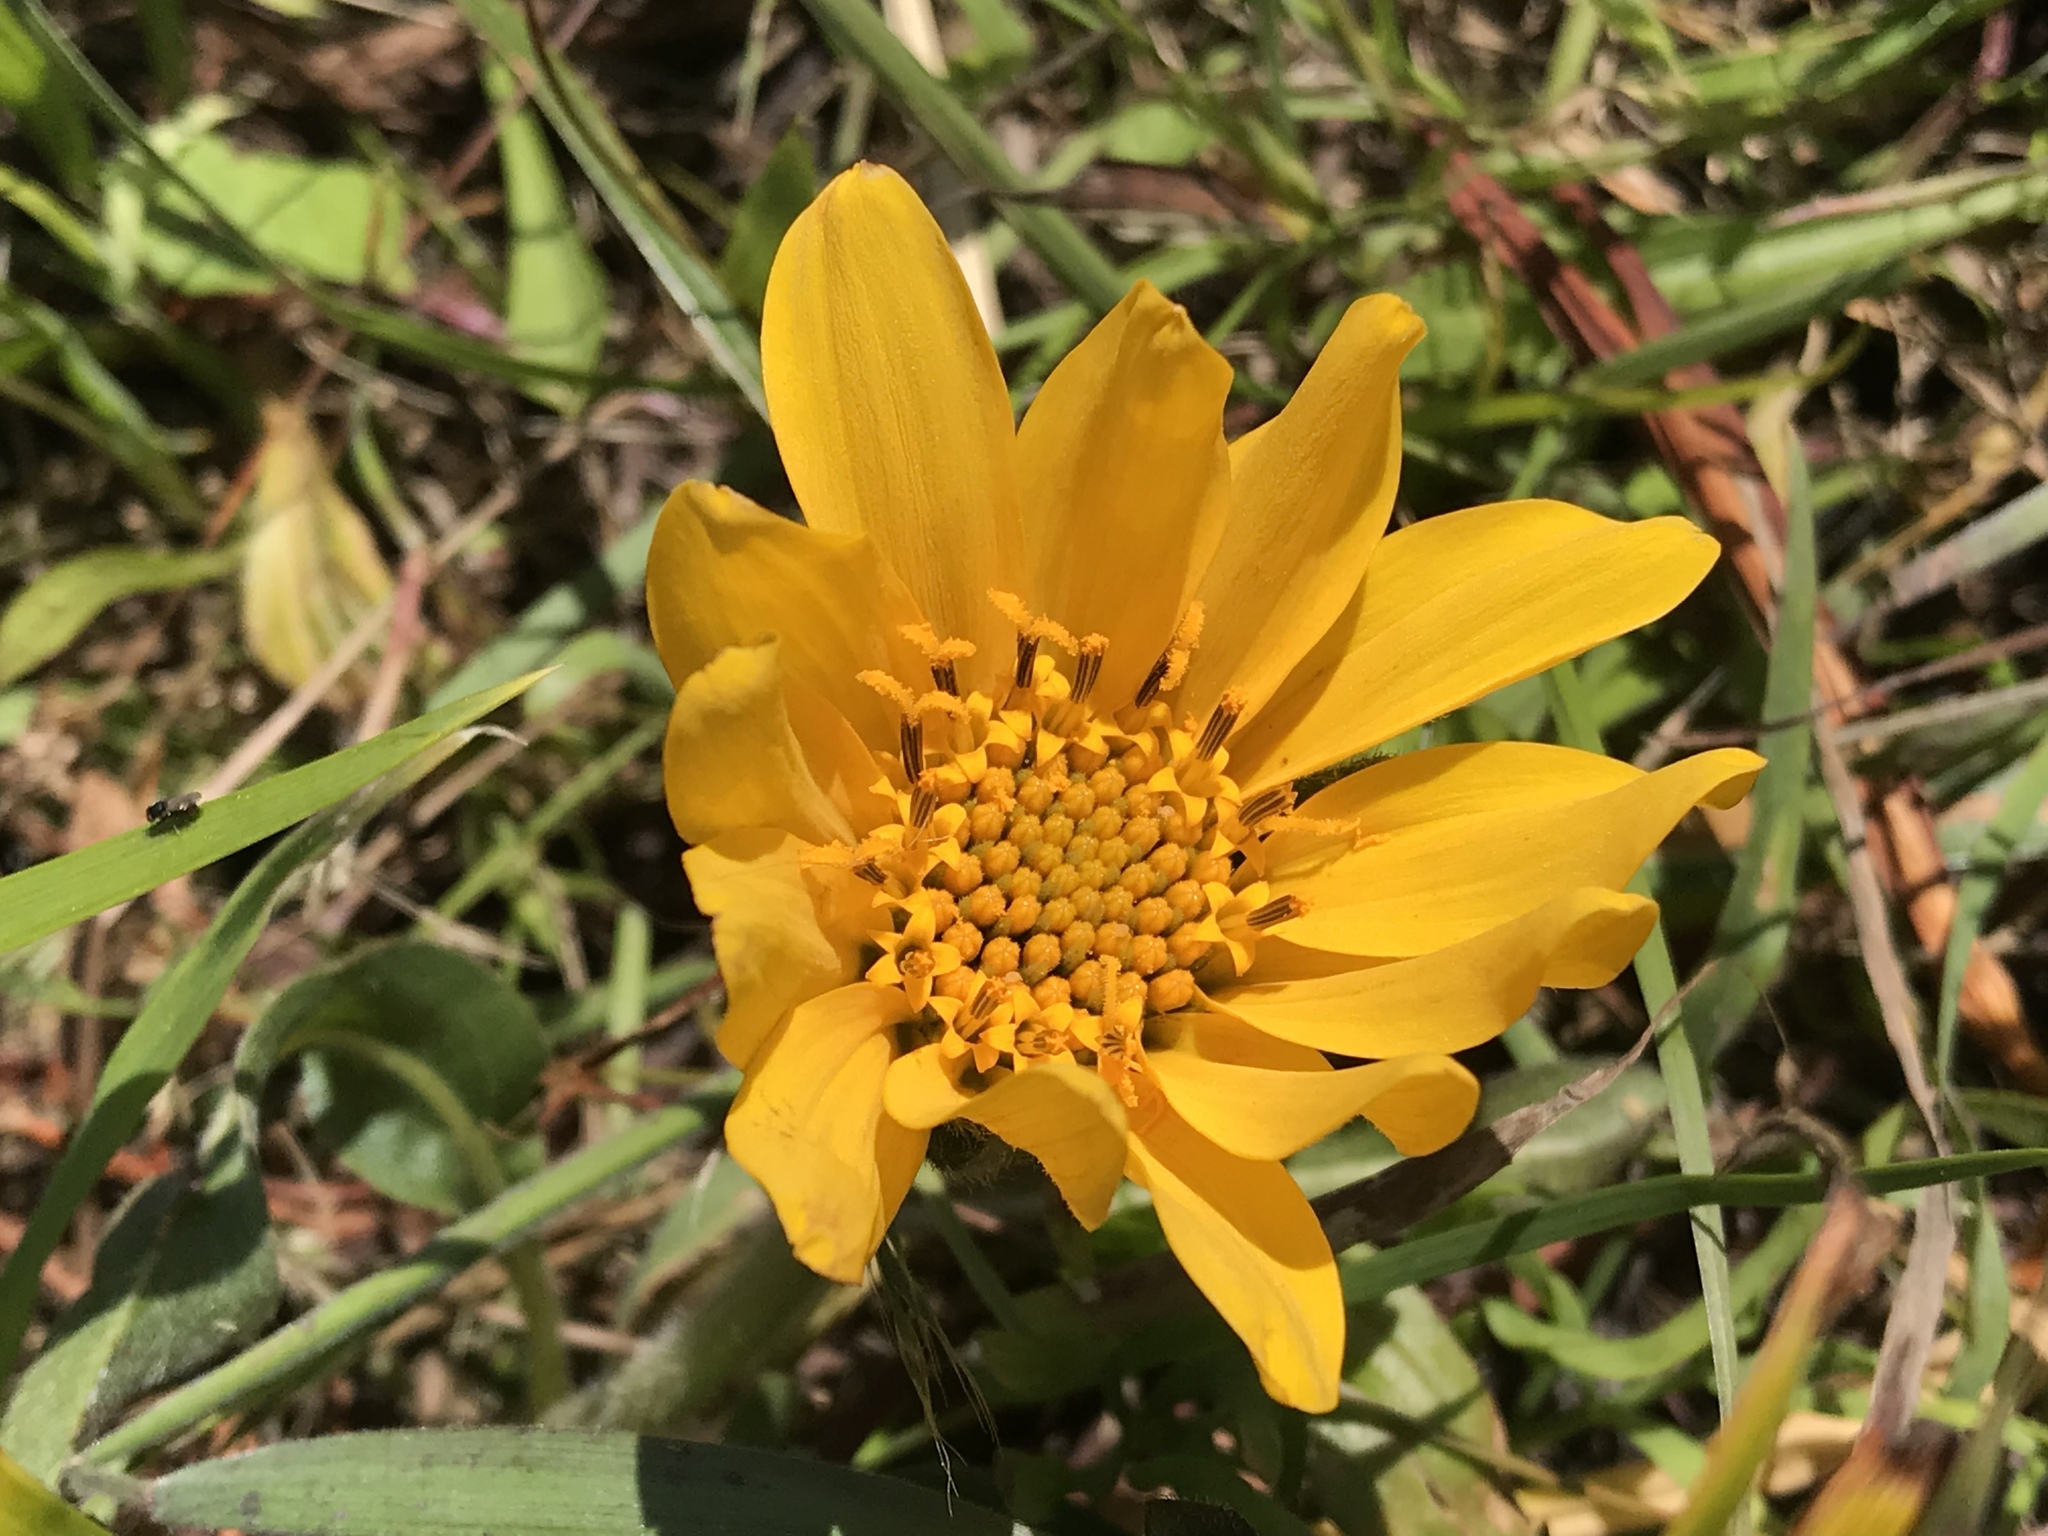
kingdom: Plantae
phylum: Tracheophyta
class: Magnoliopsida
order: Asterales
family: Asteraceae
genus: Wyethia
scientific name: Wyethia angustifolia
